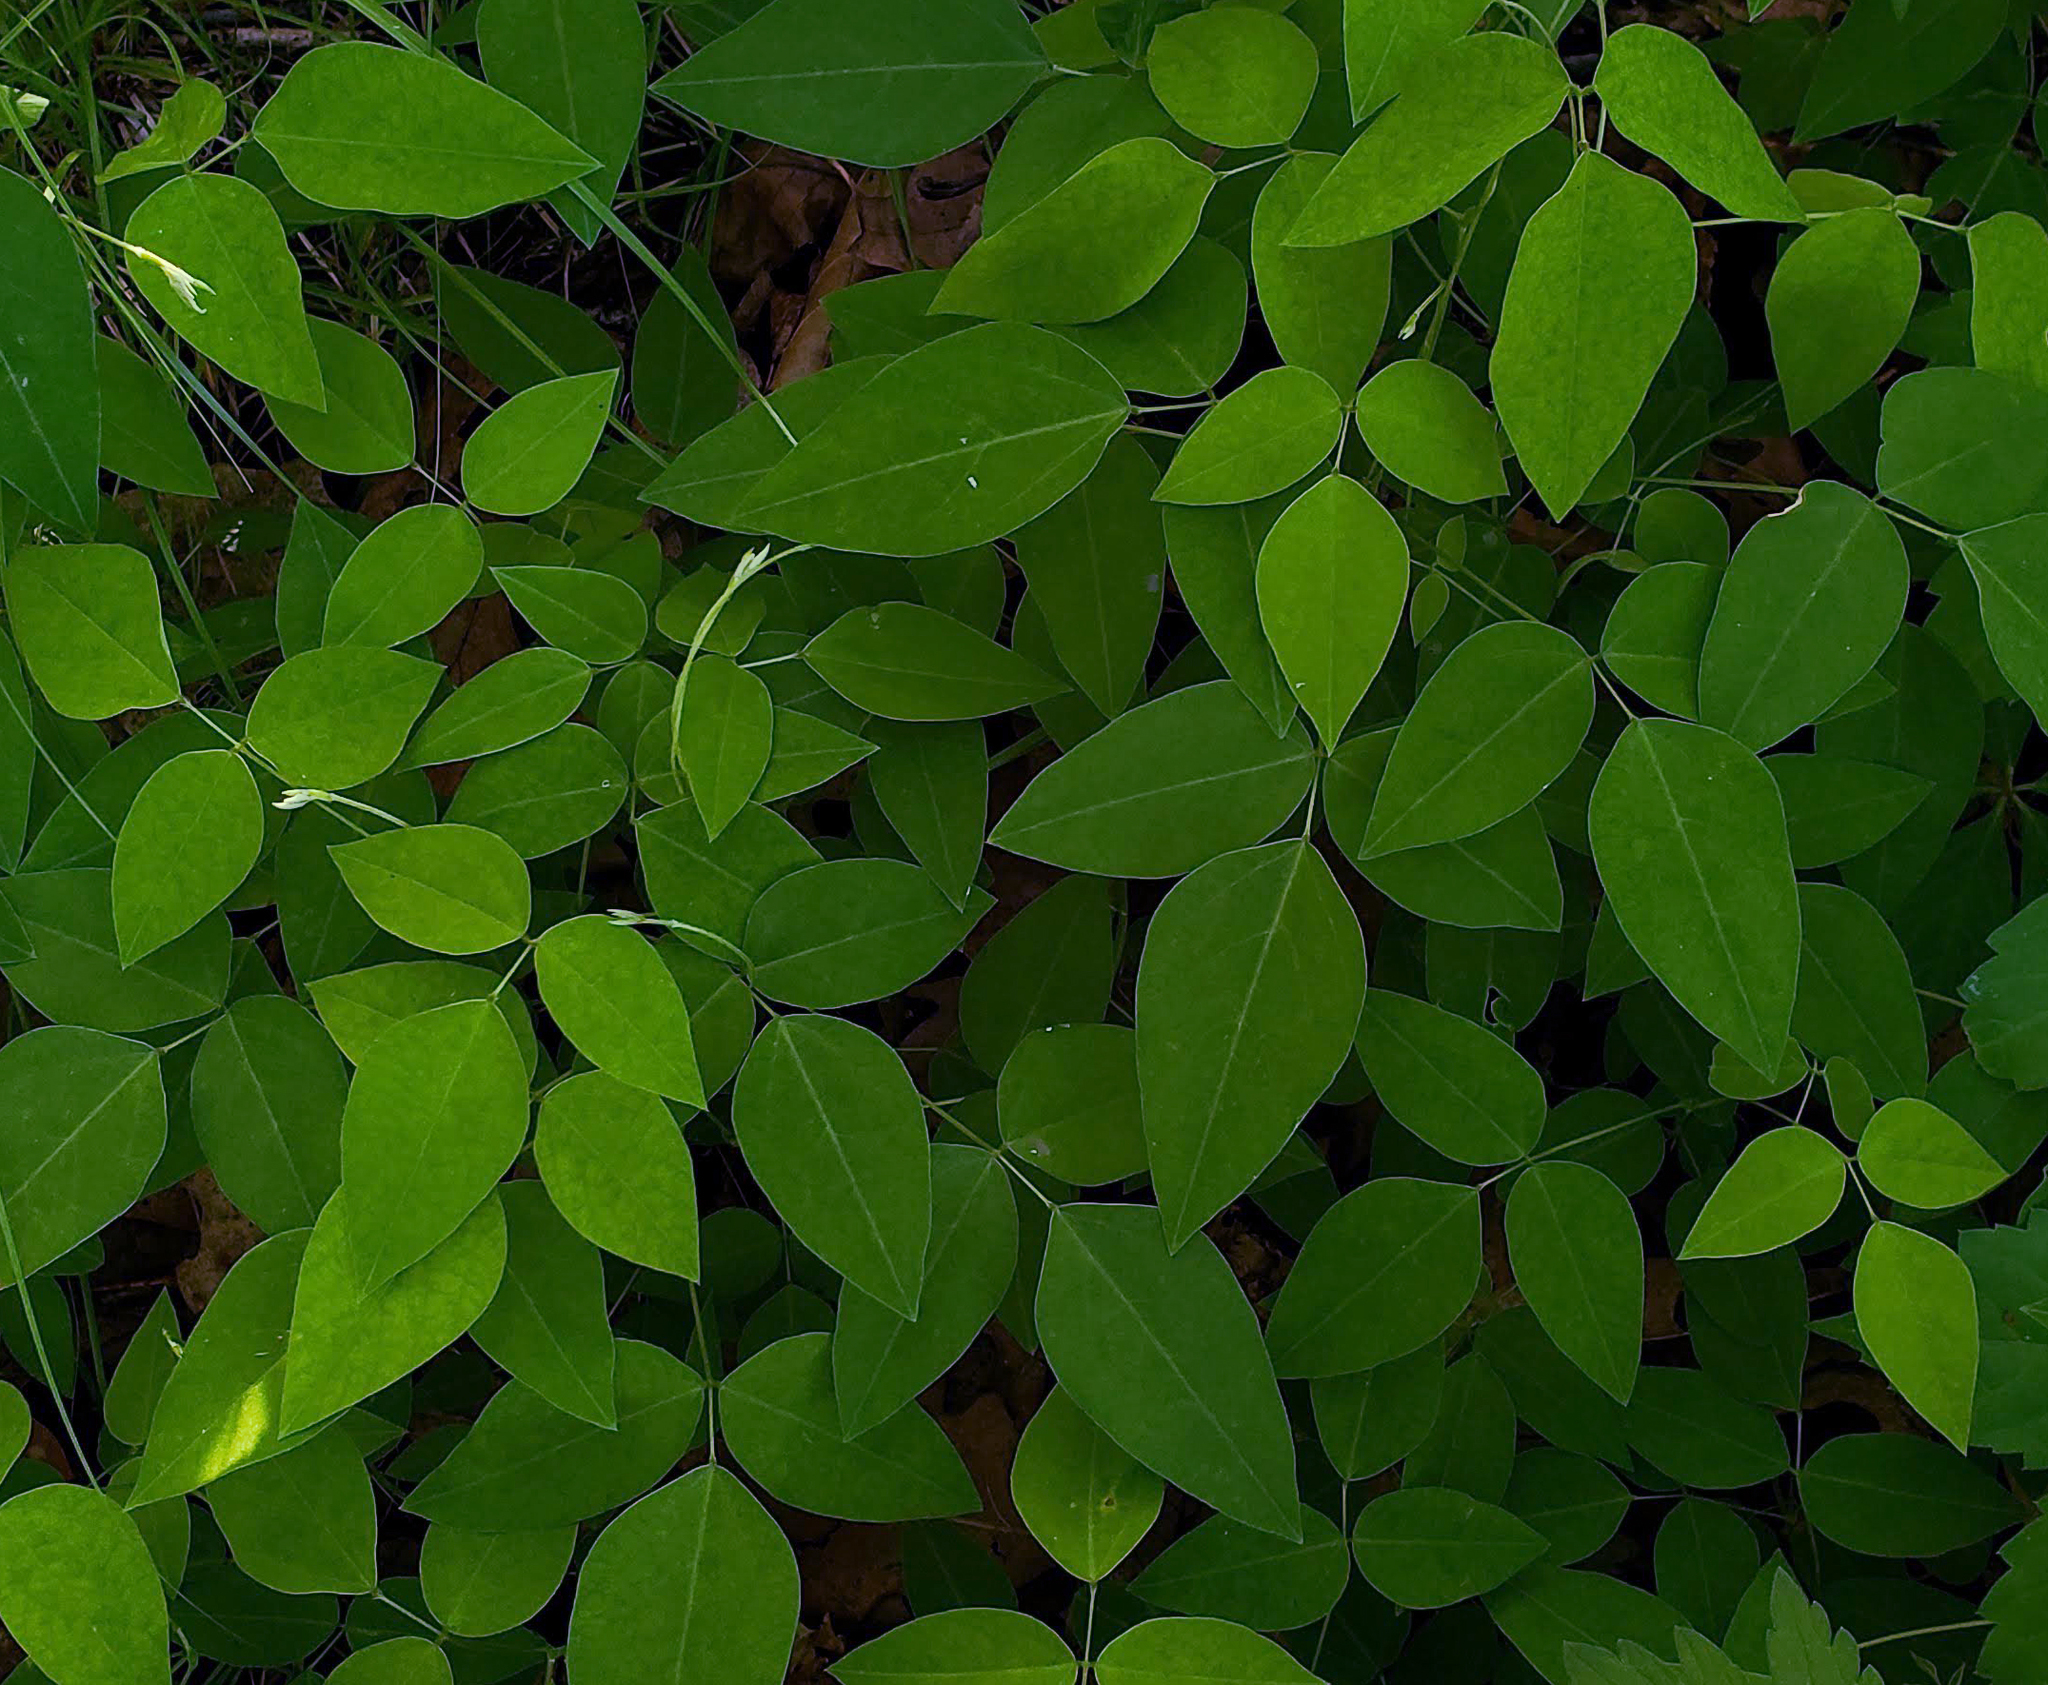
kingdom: Plantae
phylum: Tracheophyta
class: Magnoliopsida
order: Fabales
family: Fabaceae
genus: Amphicarpaea
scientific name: Amphicarpaea bracteata
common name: American hog peanut
